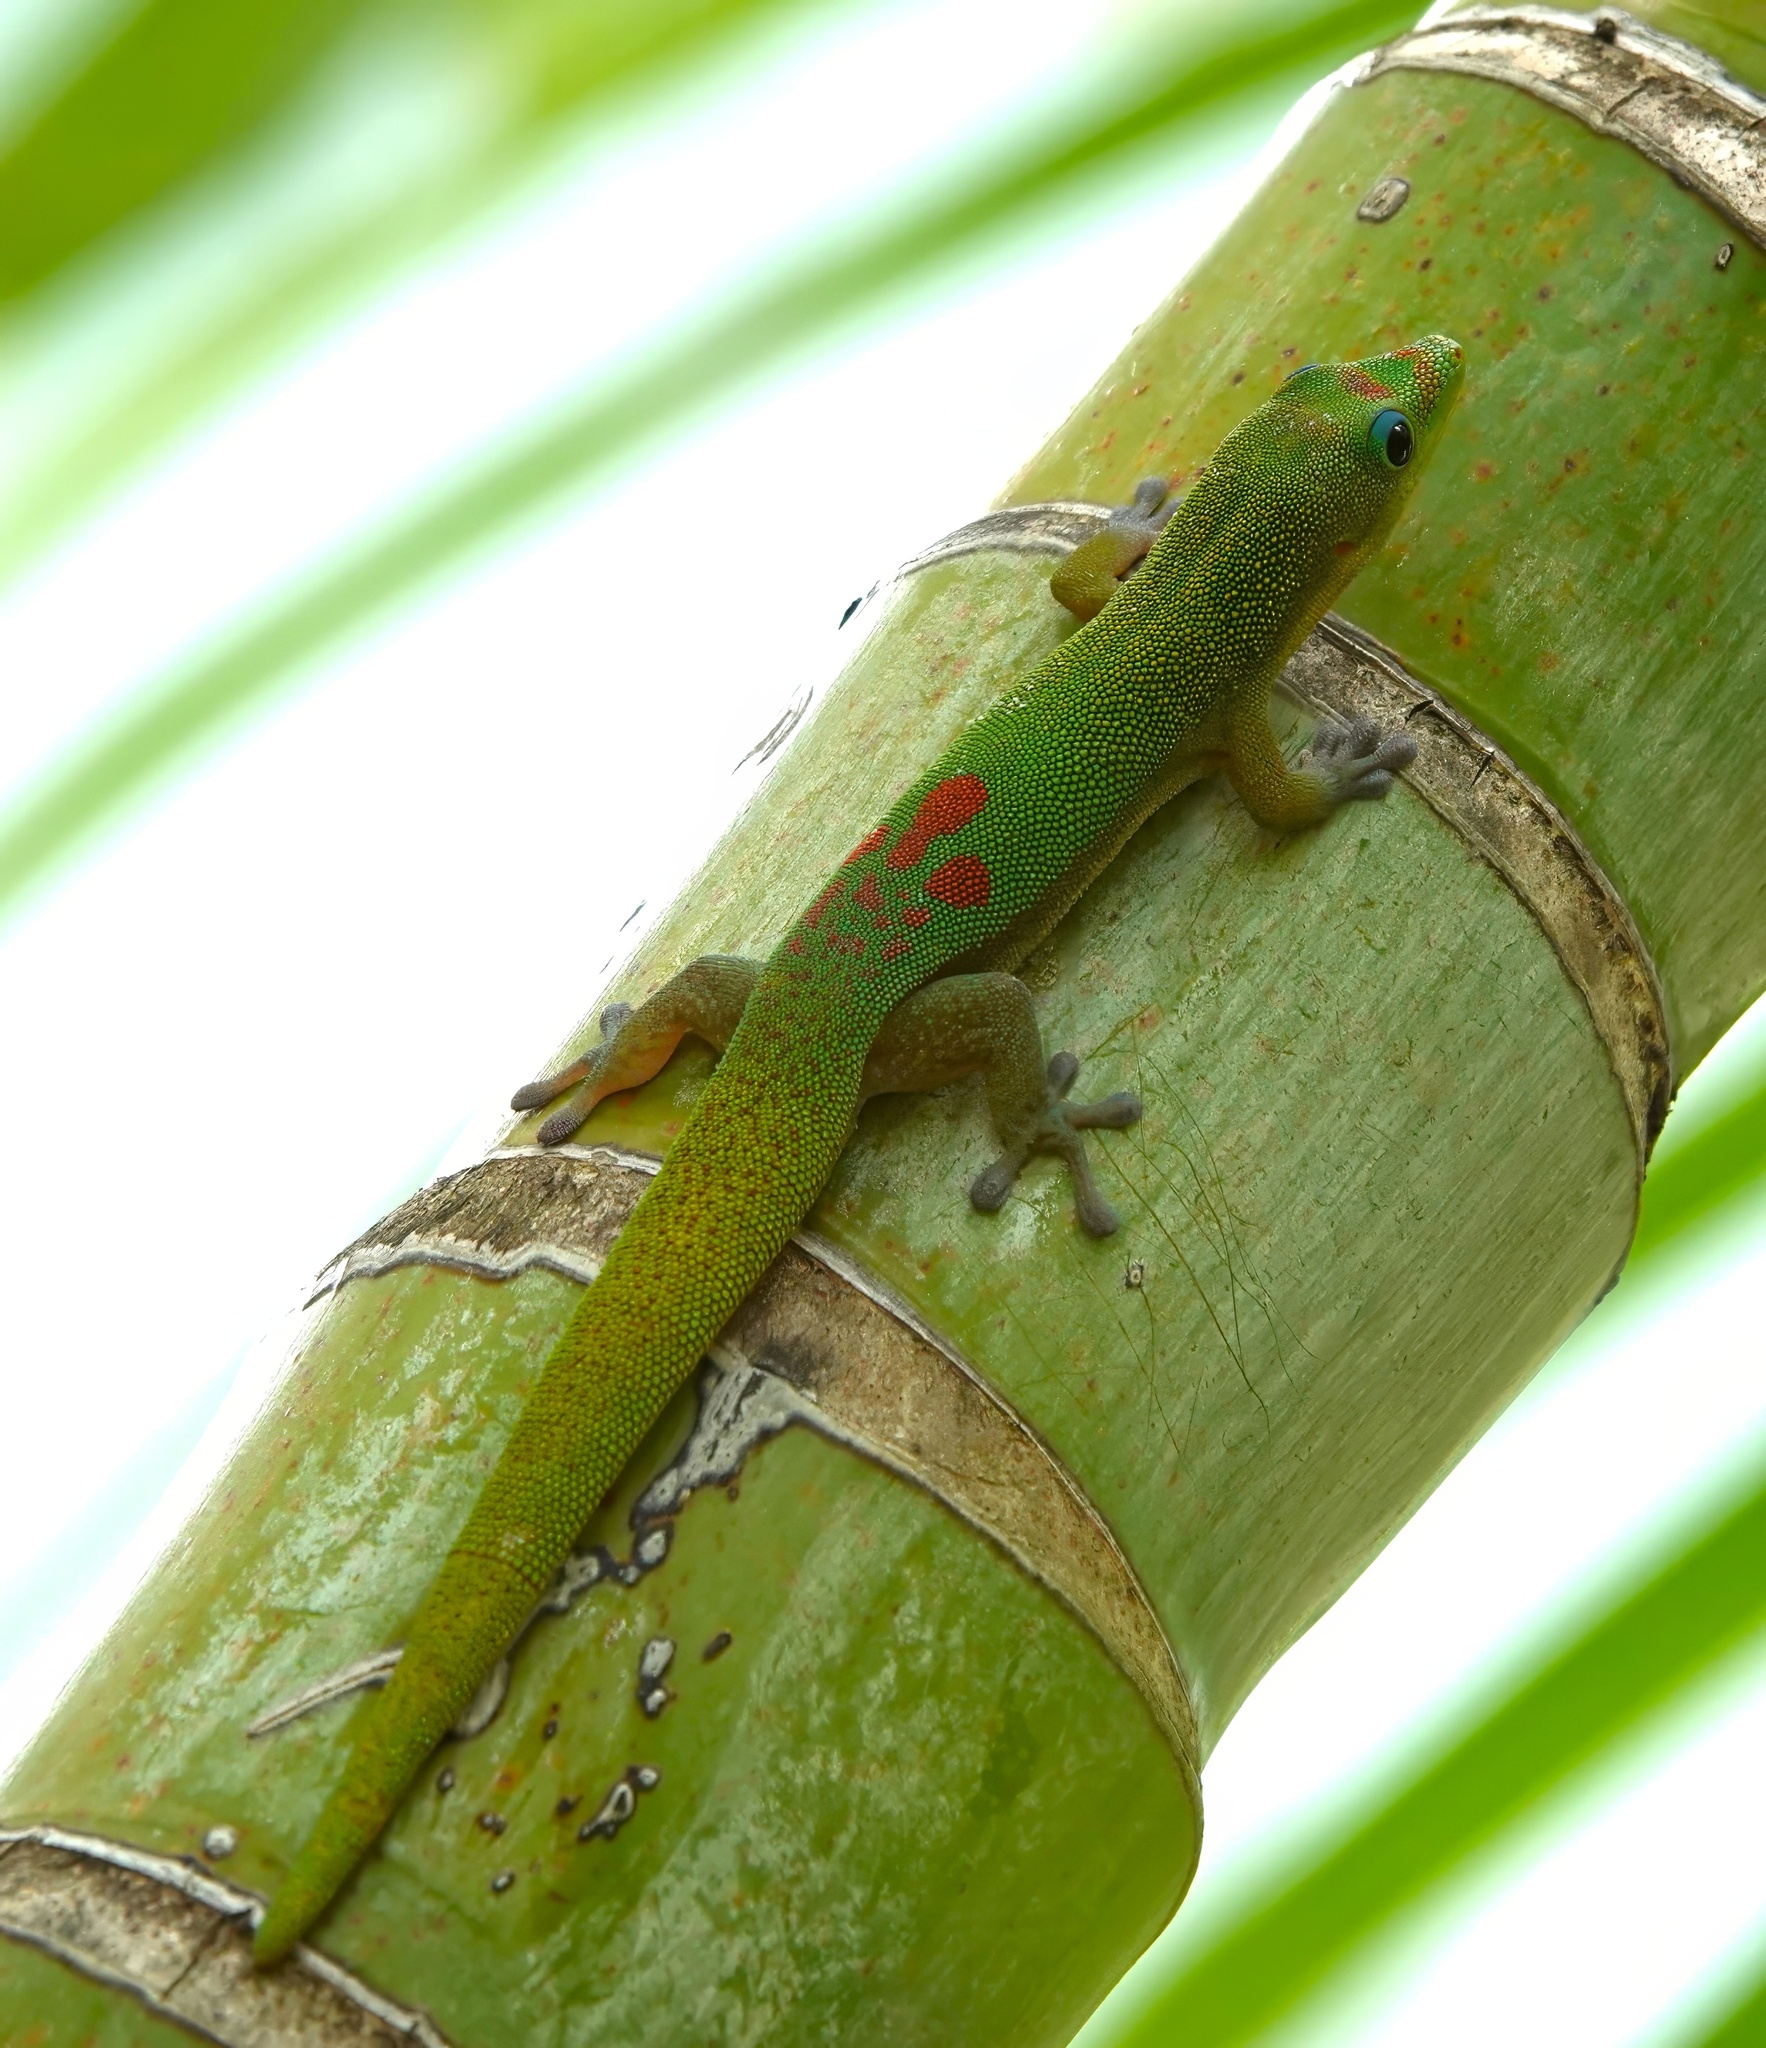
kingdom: Animalia
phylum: Chordata
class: Squamata
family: Gekkonidae
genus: Phelsuma
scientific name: Phelsuma laticauda
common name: Gold dust day gecko
